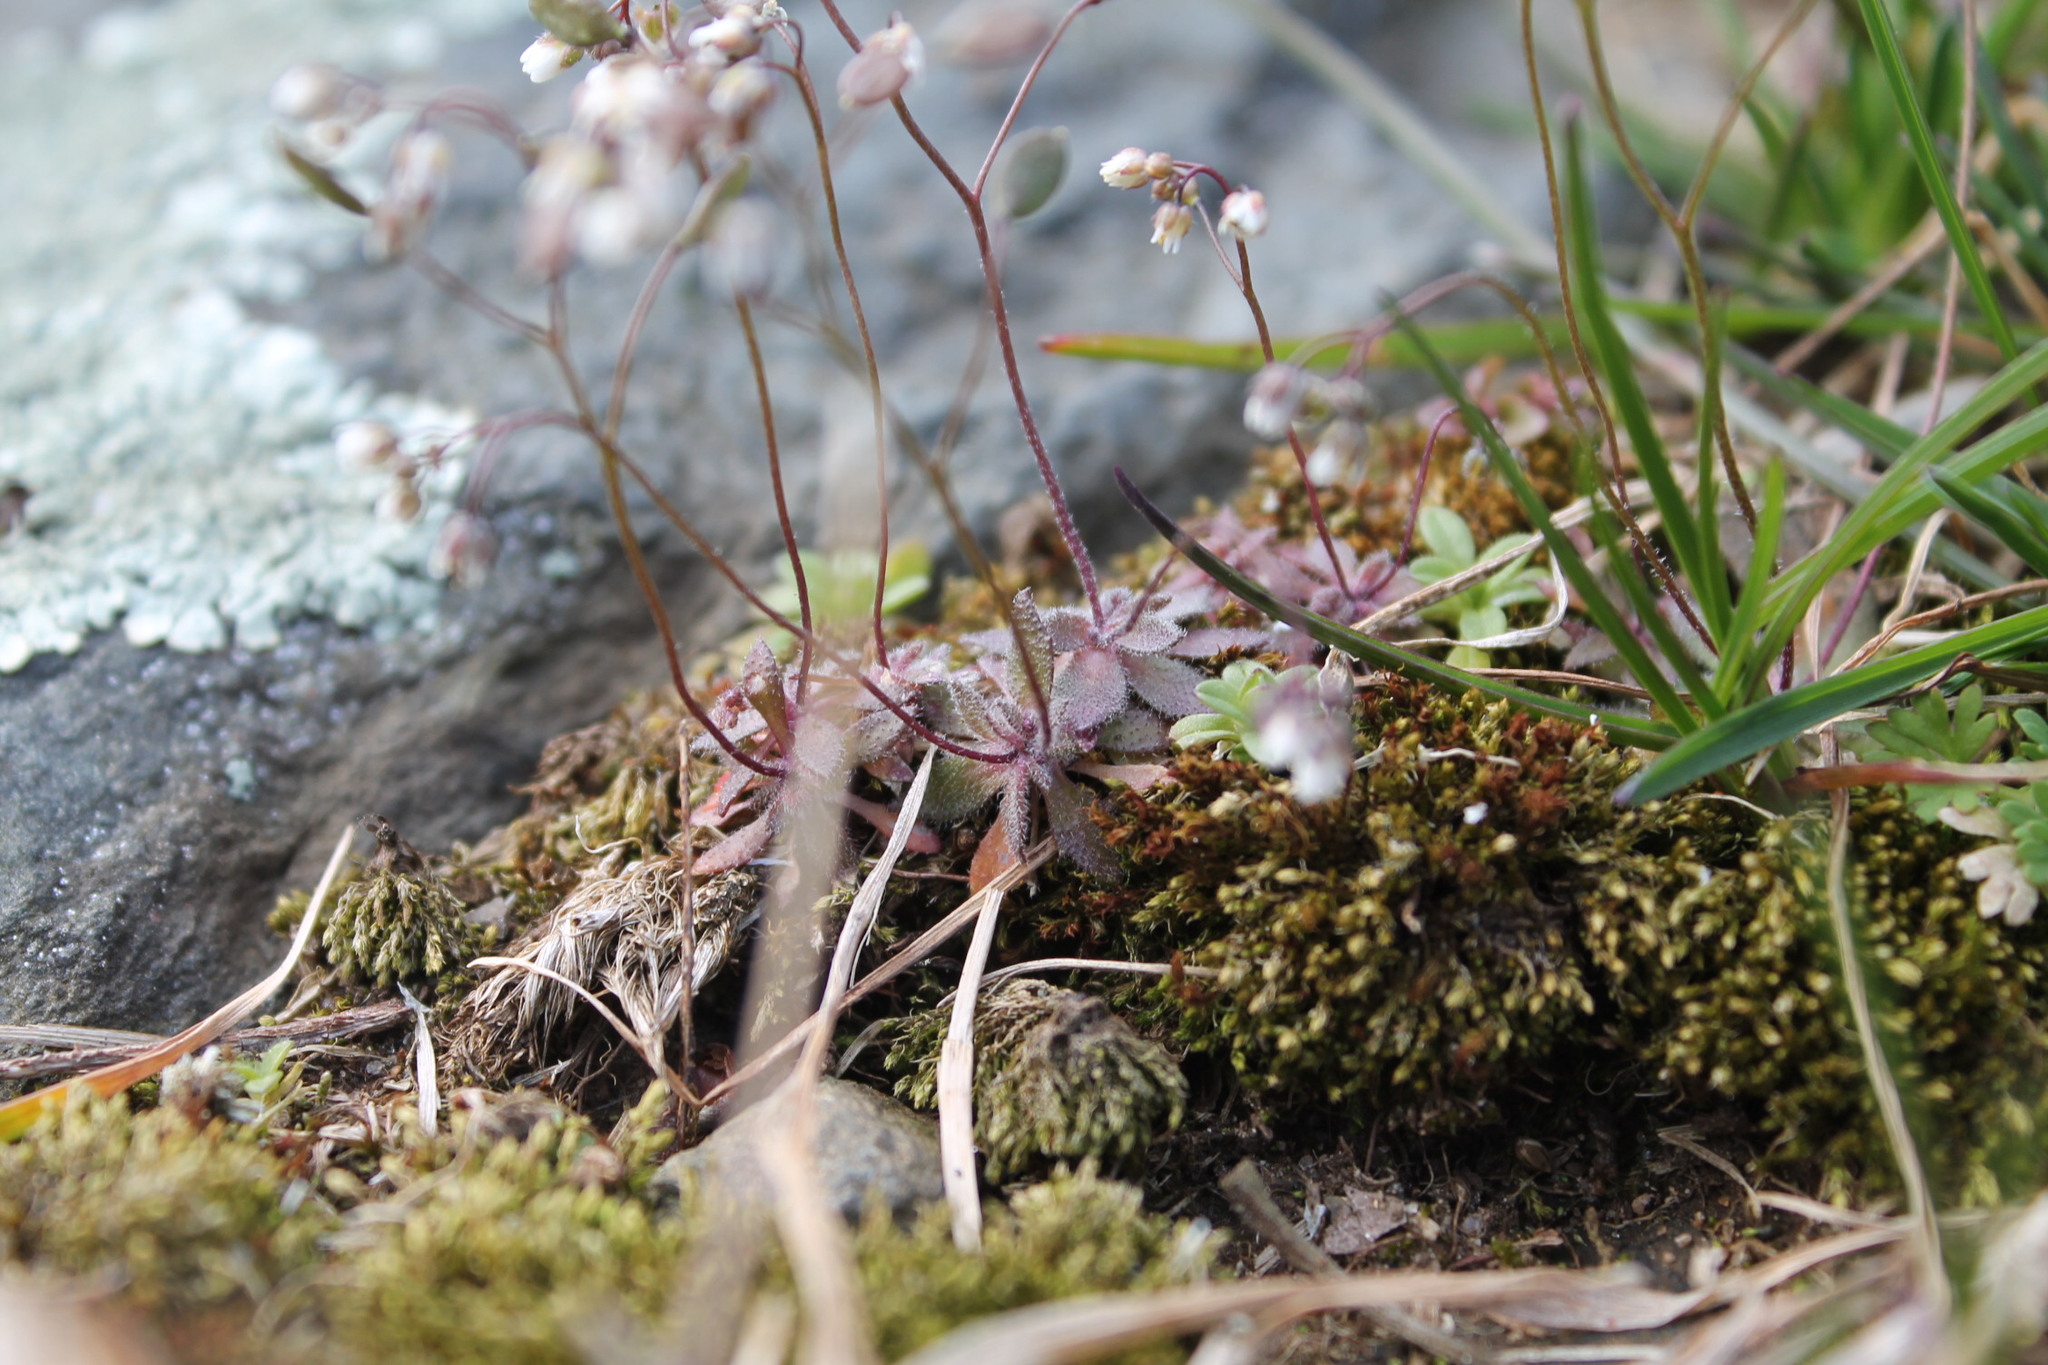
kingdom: Plantae
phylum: Tracheophyta
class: Magnoliopsida
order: Brassicales
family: Brassicaceae
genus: Draba
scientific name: Draba verna
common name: Spring draba
